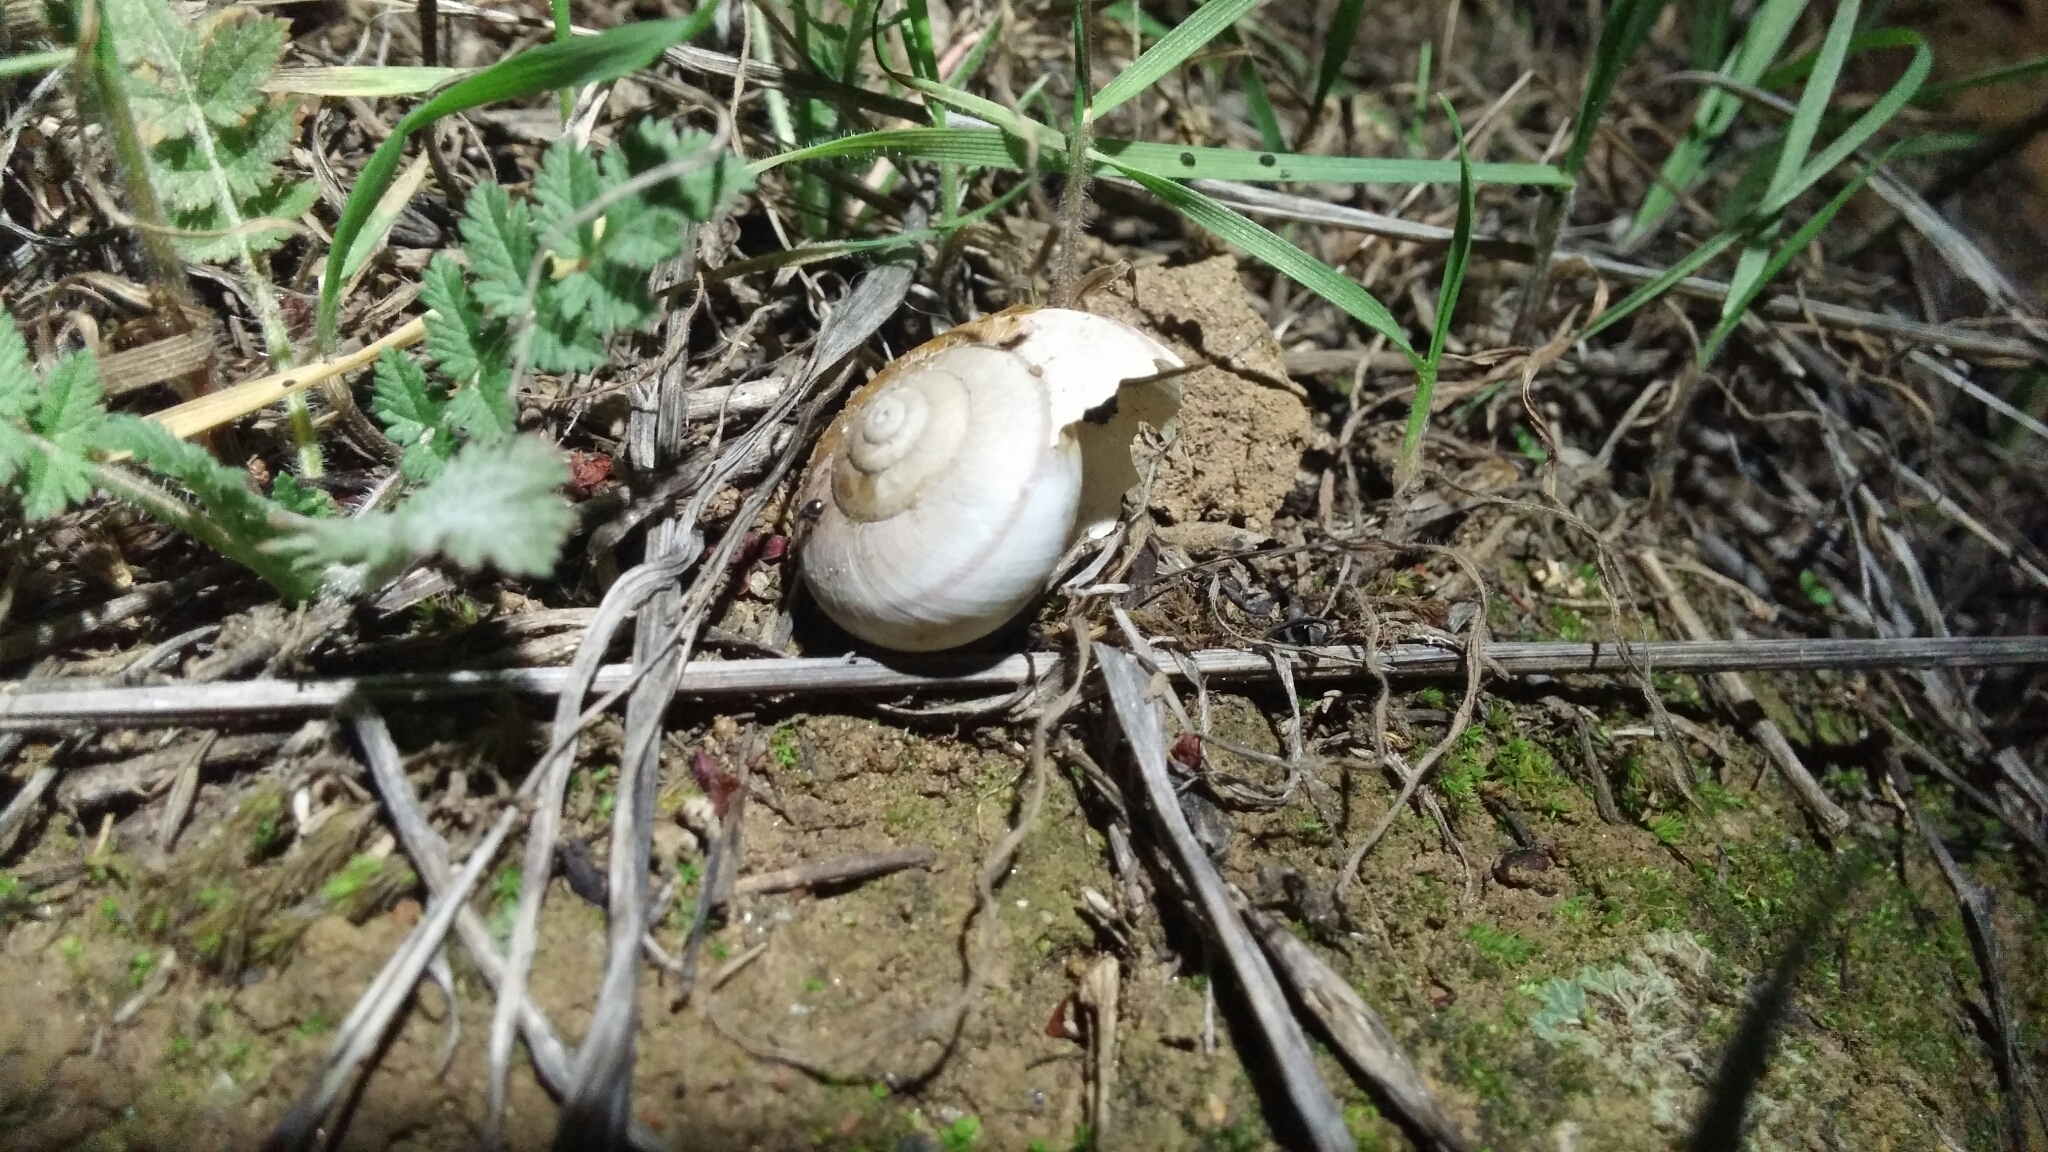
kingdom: Animalia
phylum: Mollusca
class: Gastropoda
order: Stylommatophora
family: Xanthonychidae
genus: Helminthoglypta
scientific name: Helminthoglypta tudiculata
